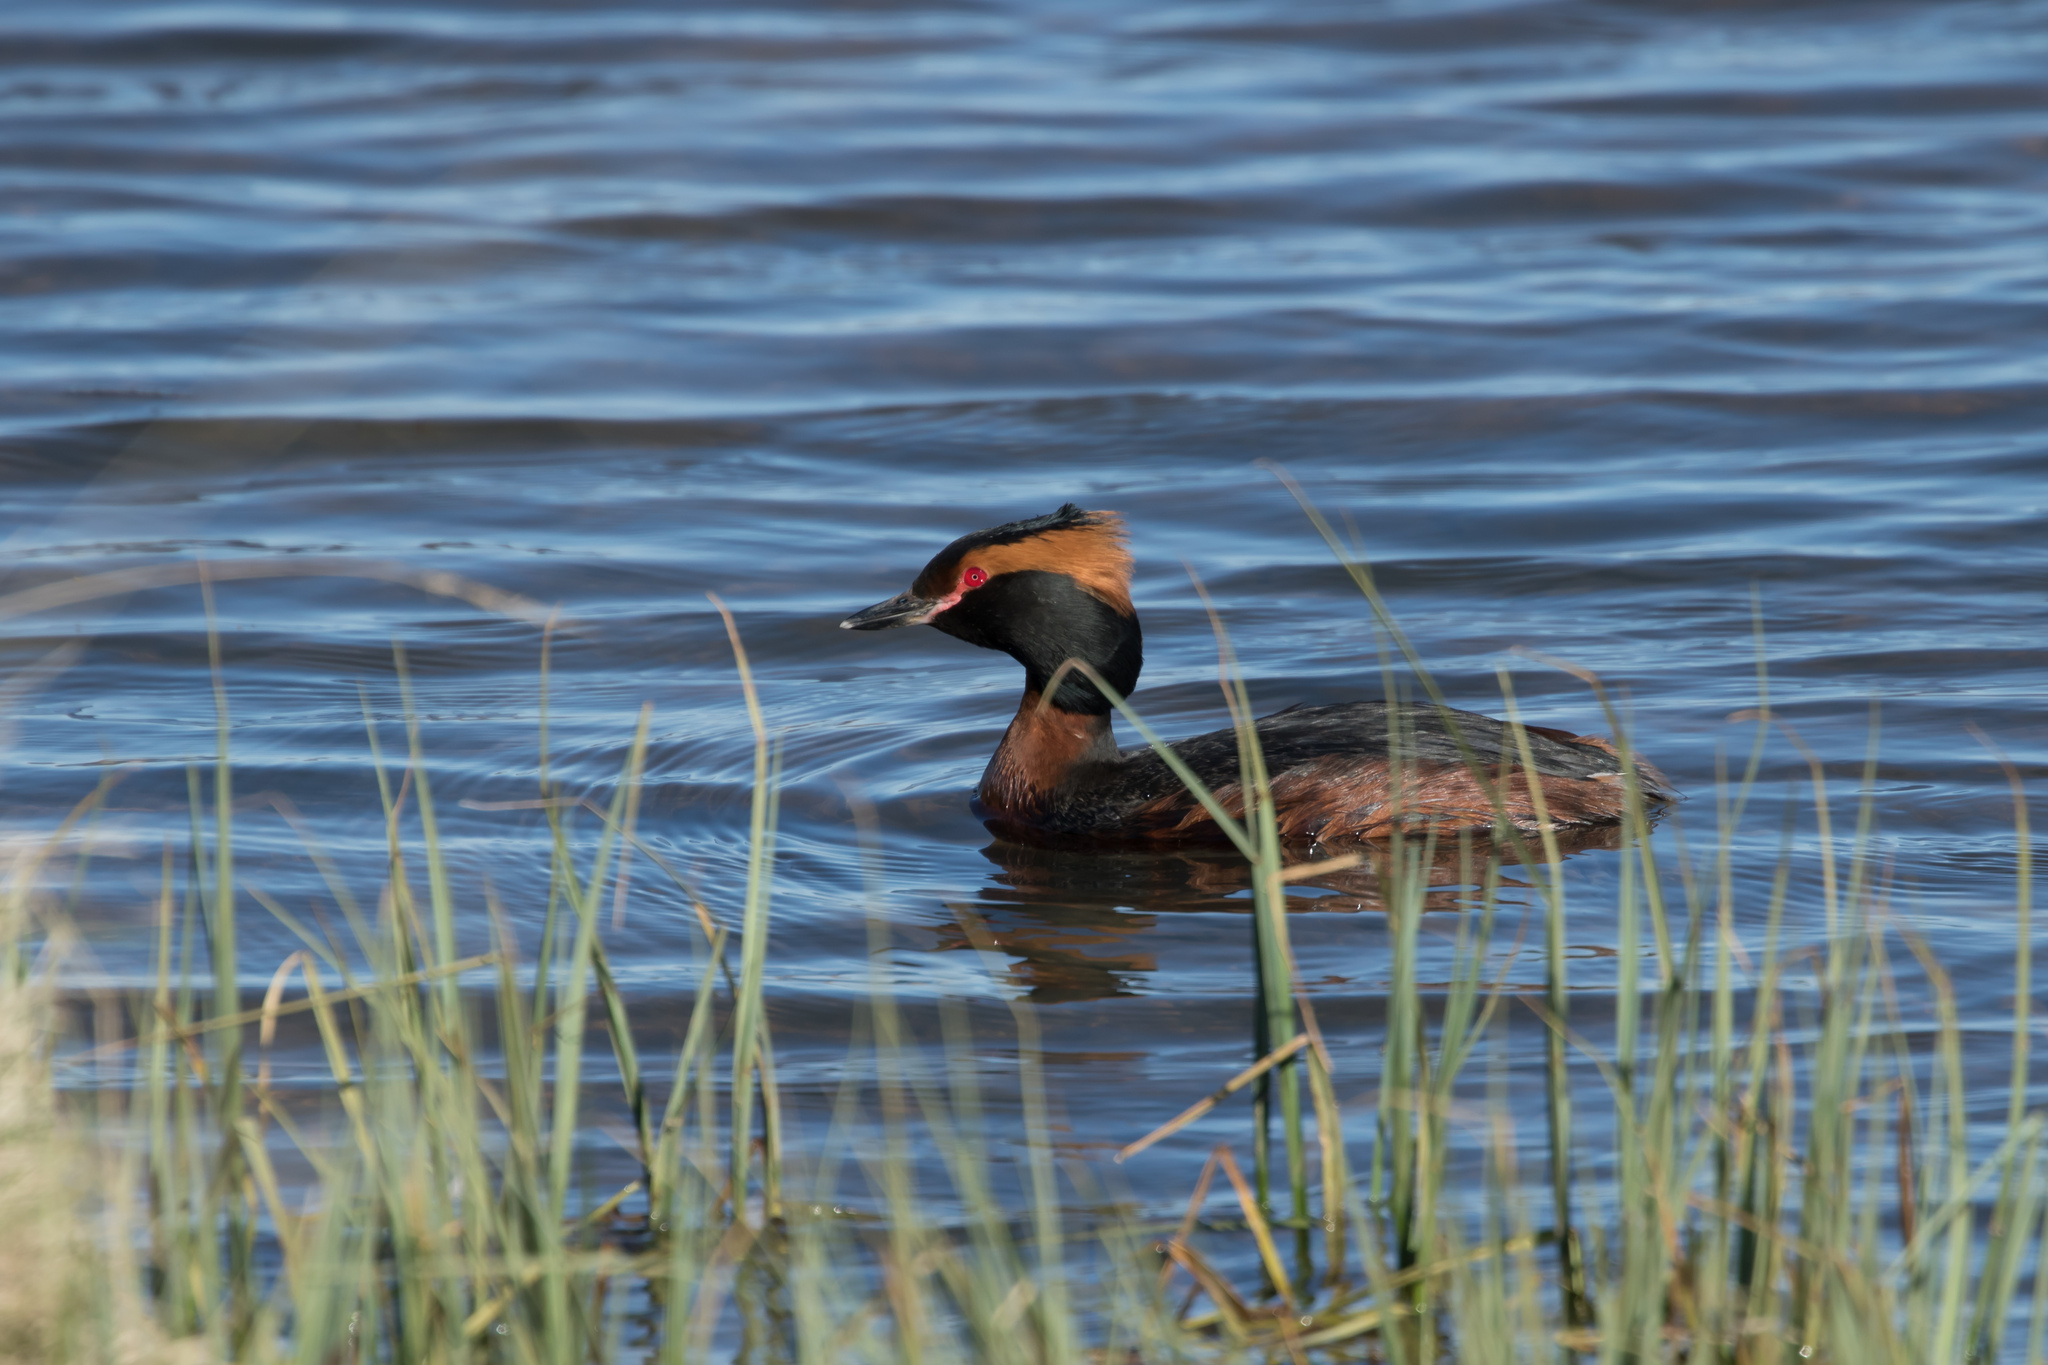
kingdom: Animalia
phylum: Chordata
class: Aves
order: Podicipediformes
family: Podicipedidae
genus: Podiceps
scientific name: Podiceps auritus
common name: Horned grebe
